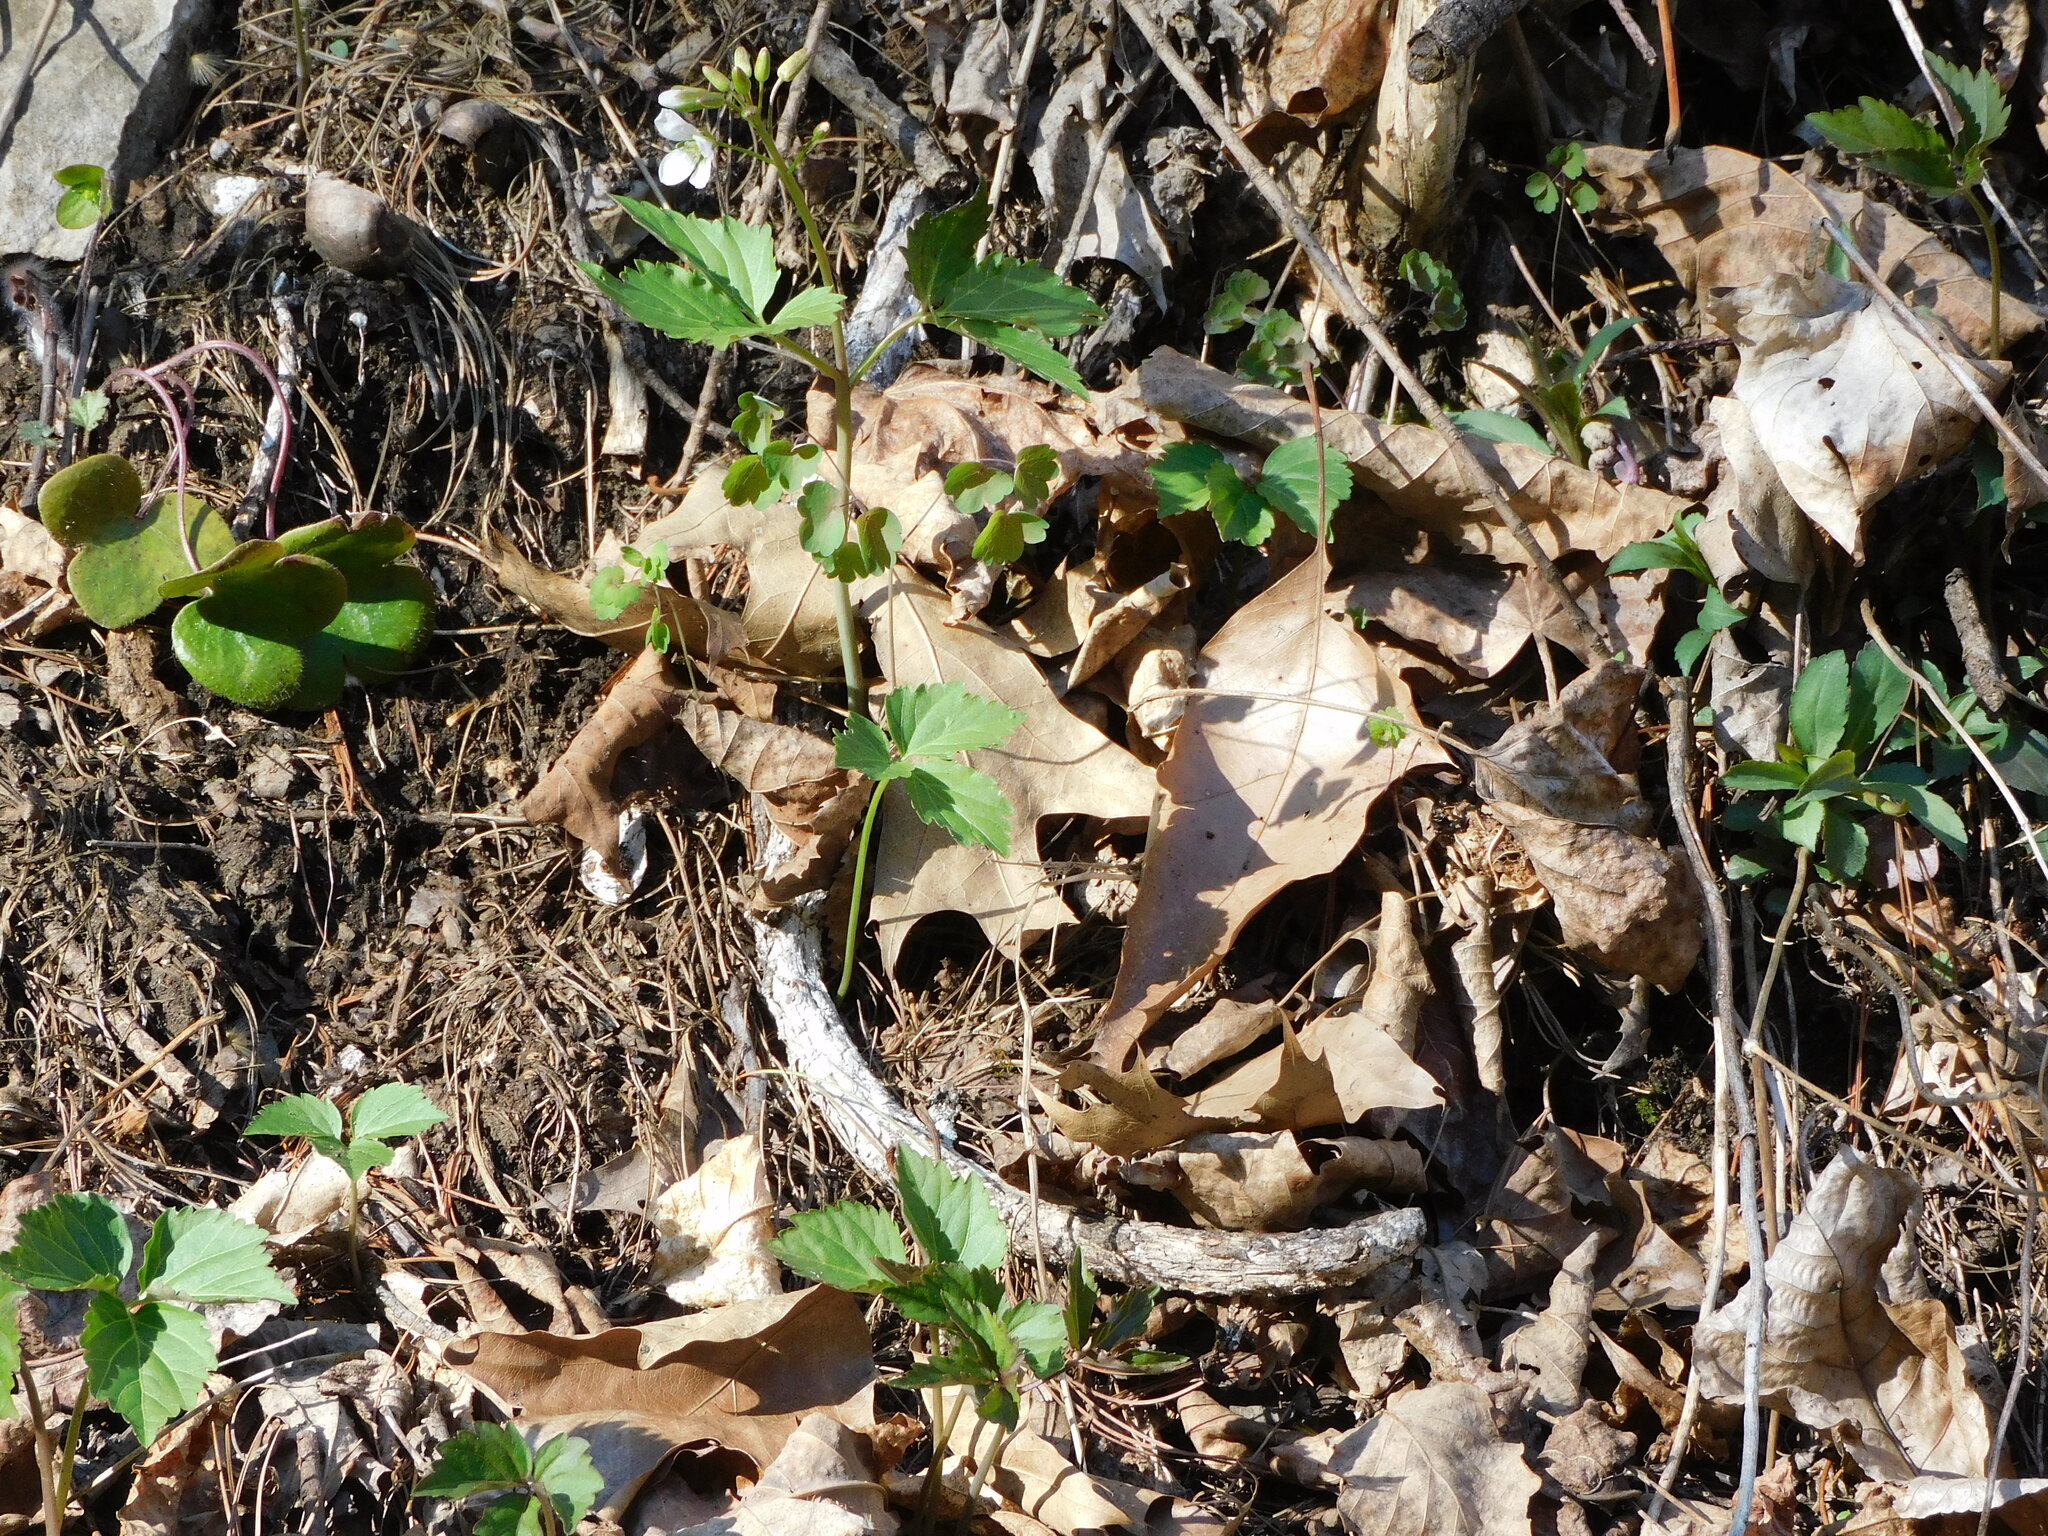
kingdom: Plantae
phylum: Tracheophyta
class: Magnoliopsida
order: Brassicales
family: Brassicaceae
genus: Cardamine
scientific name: Cardamine diphylla
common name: Broad-leaved toothwort
